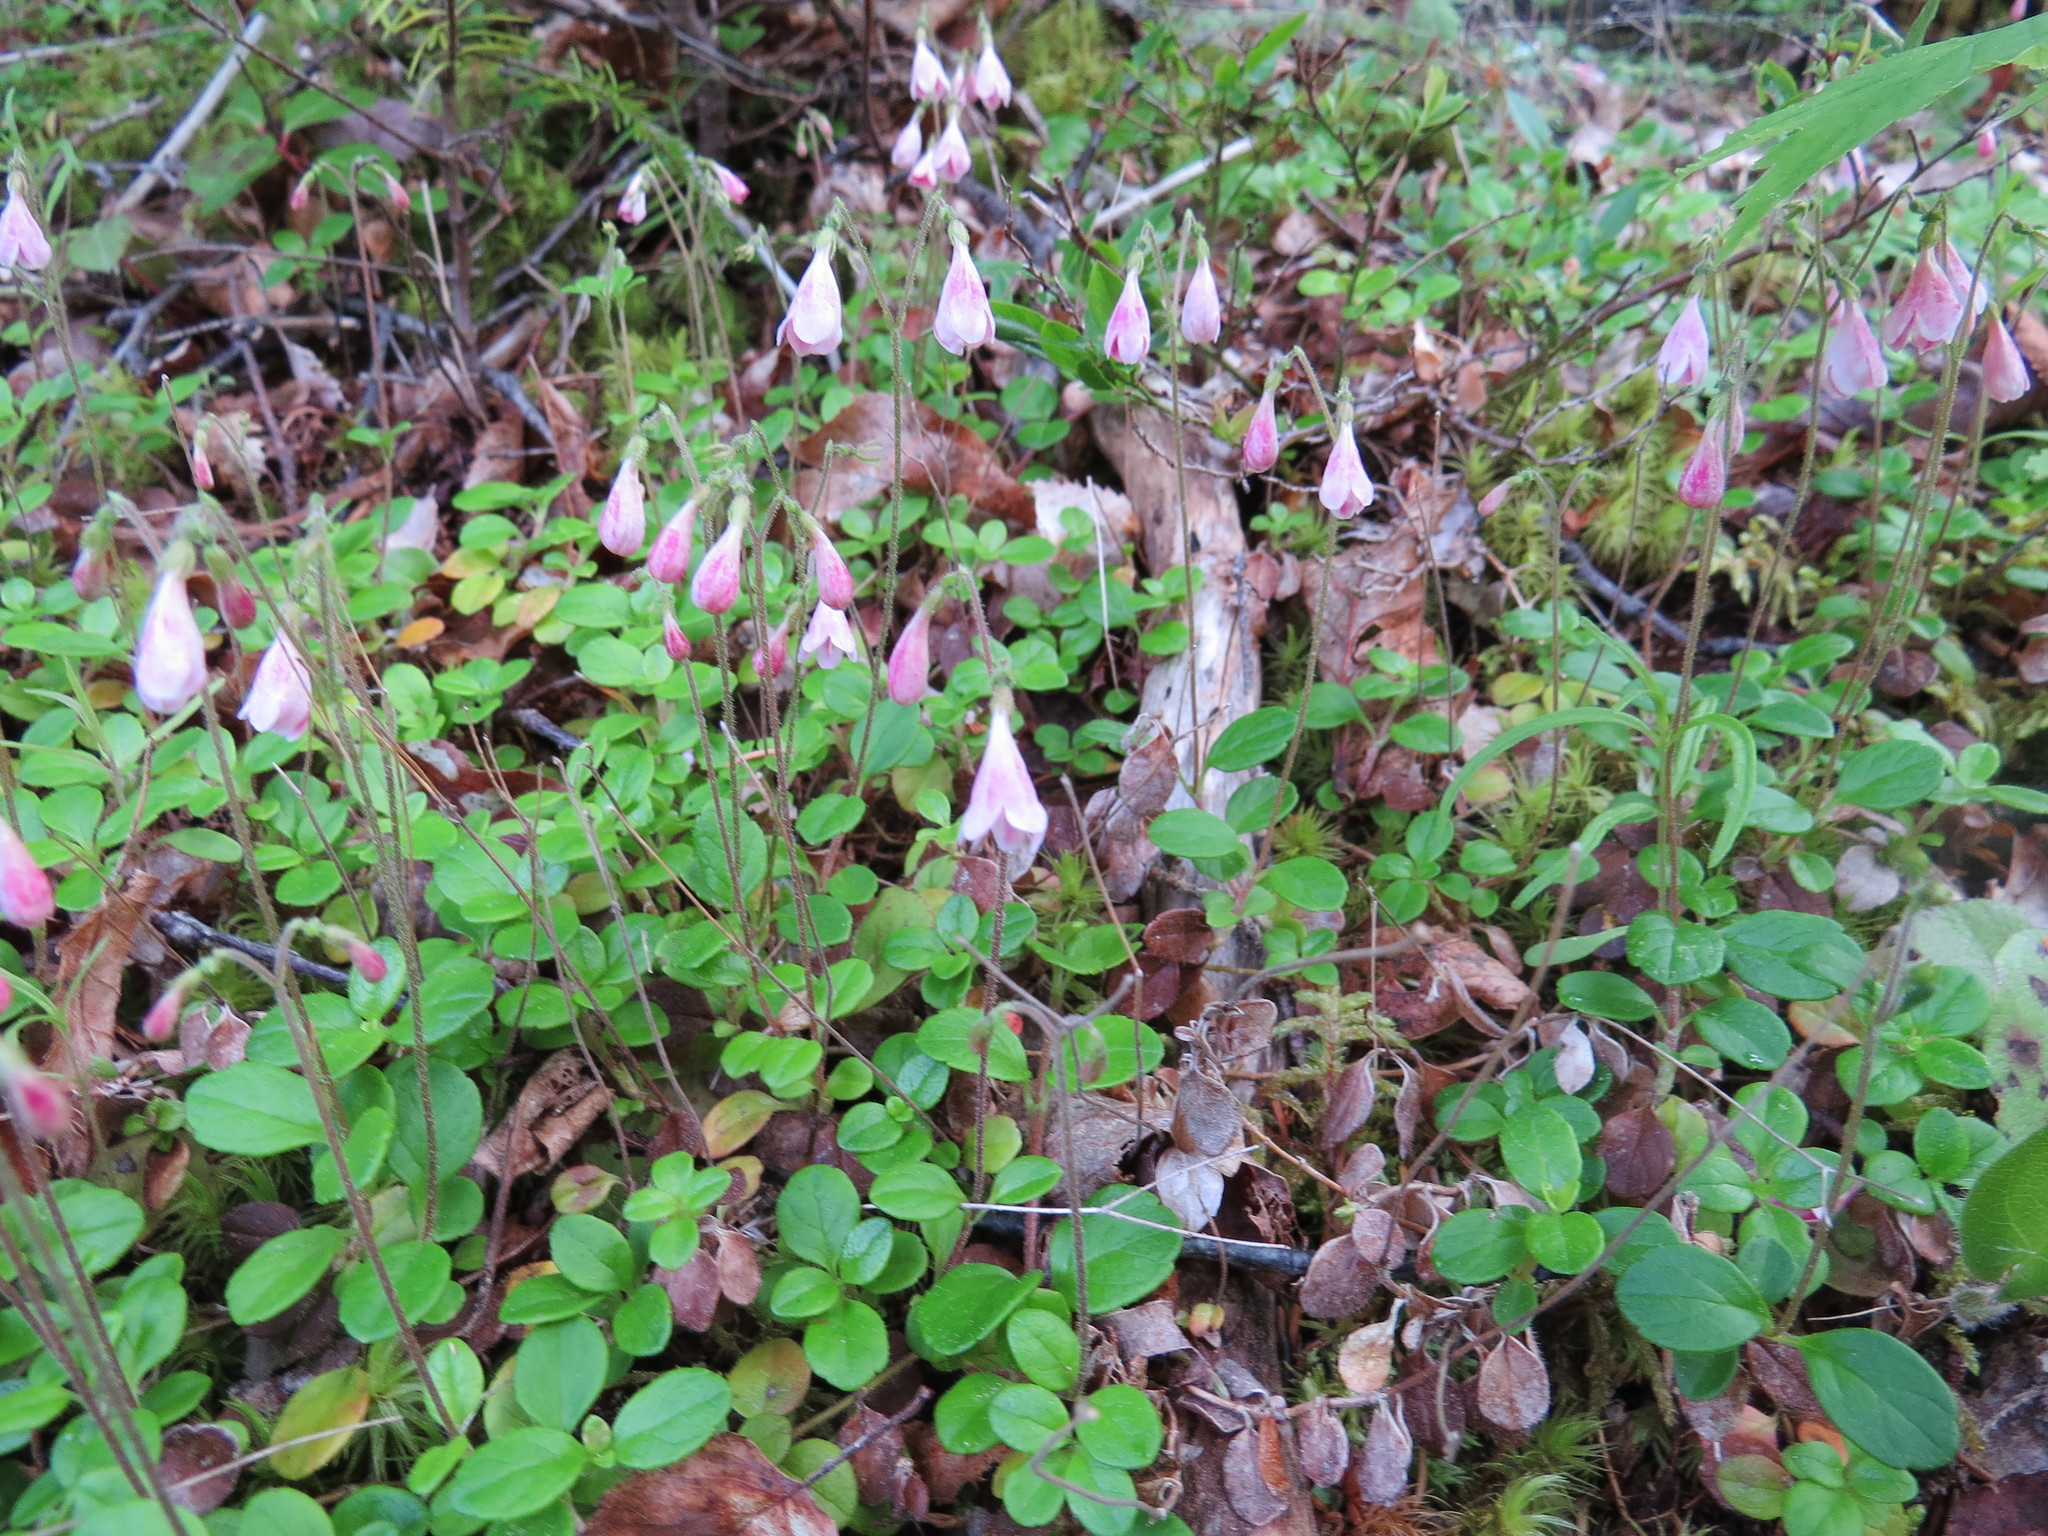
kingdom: Plantae
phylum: Tracheophyta
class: Magnoliopsida
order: Dipsacales
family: Caprifoliaceae
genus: Linnaea
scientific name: Linnaea borealis
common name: Twinflower
